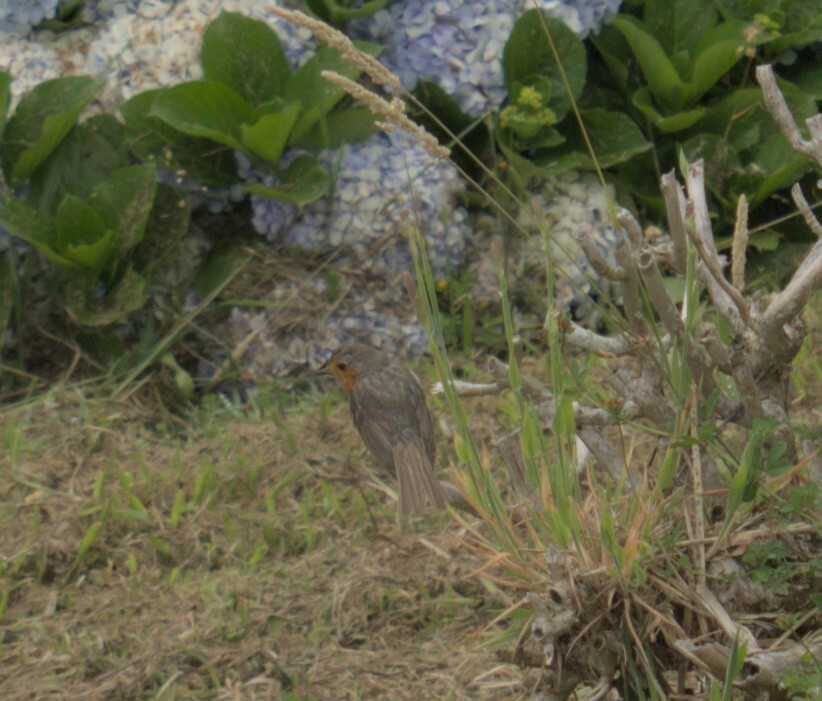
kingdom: Animalia
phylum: Chordata
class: Aves
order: Passeriformes
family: Muscicapidae
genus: Erithacus
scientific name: Erithacus rubecula
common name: European robin
